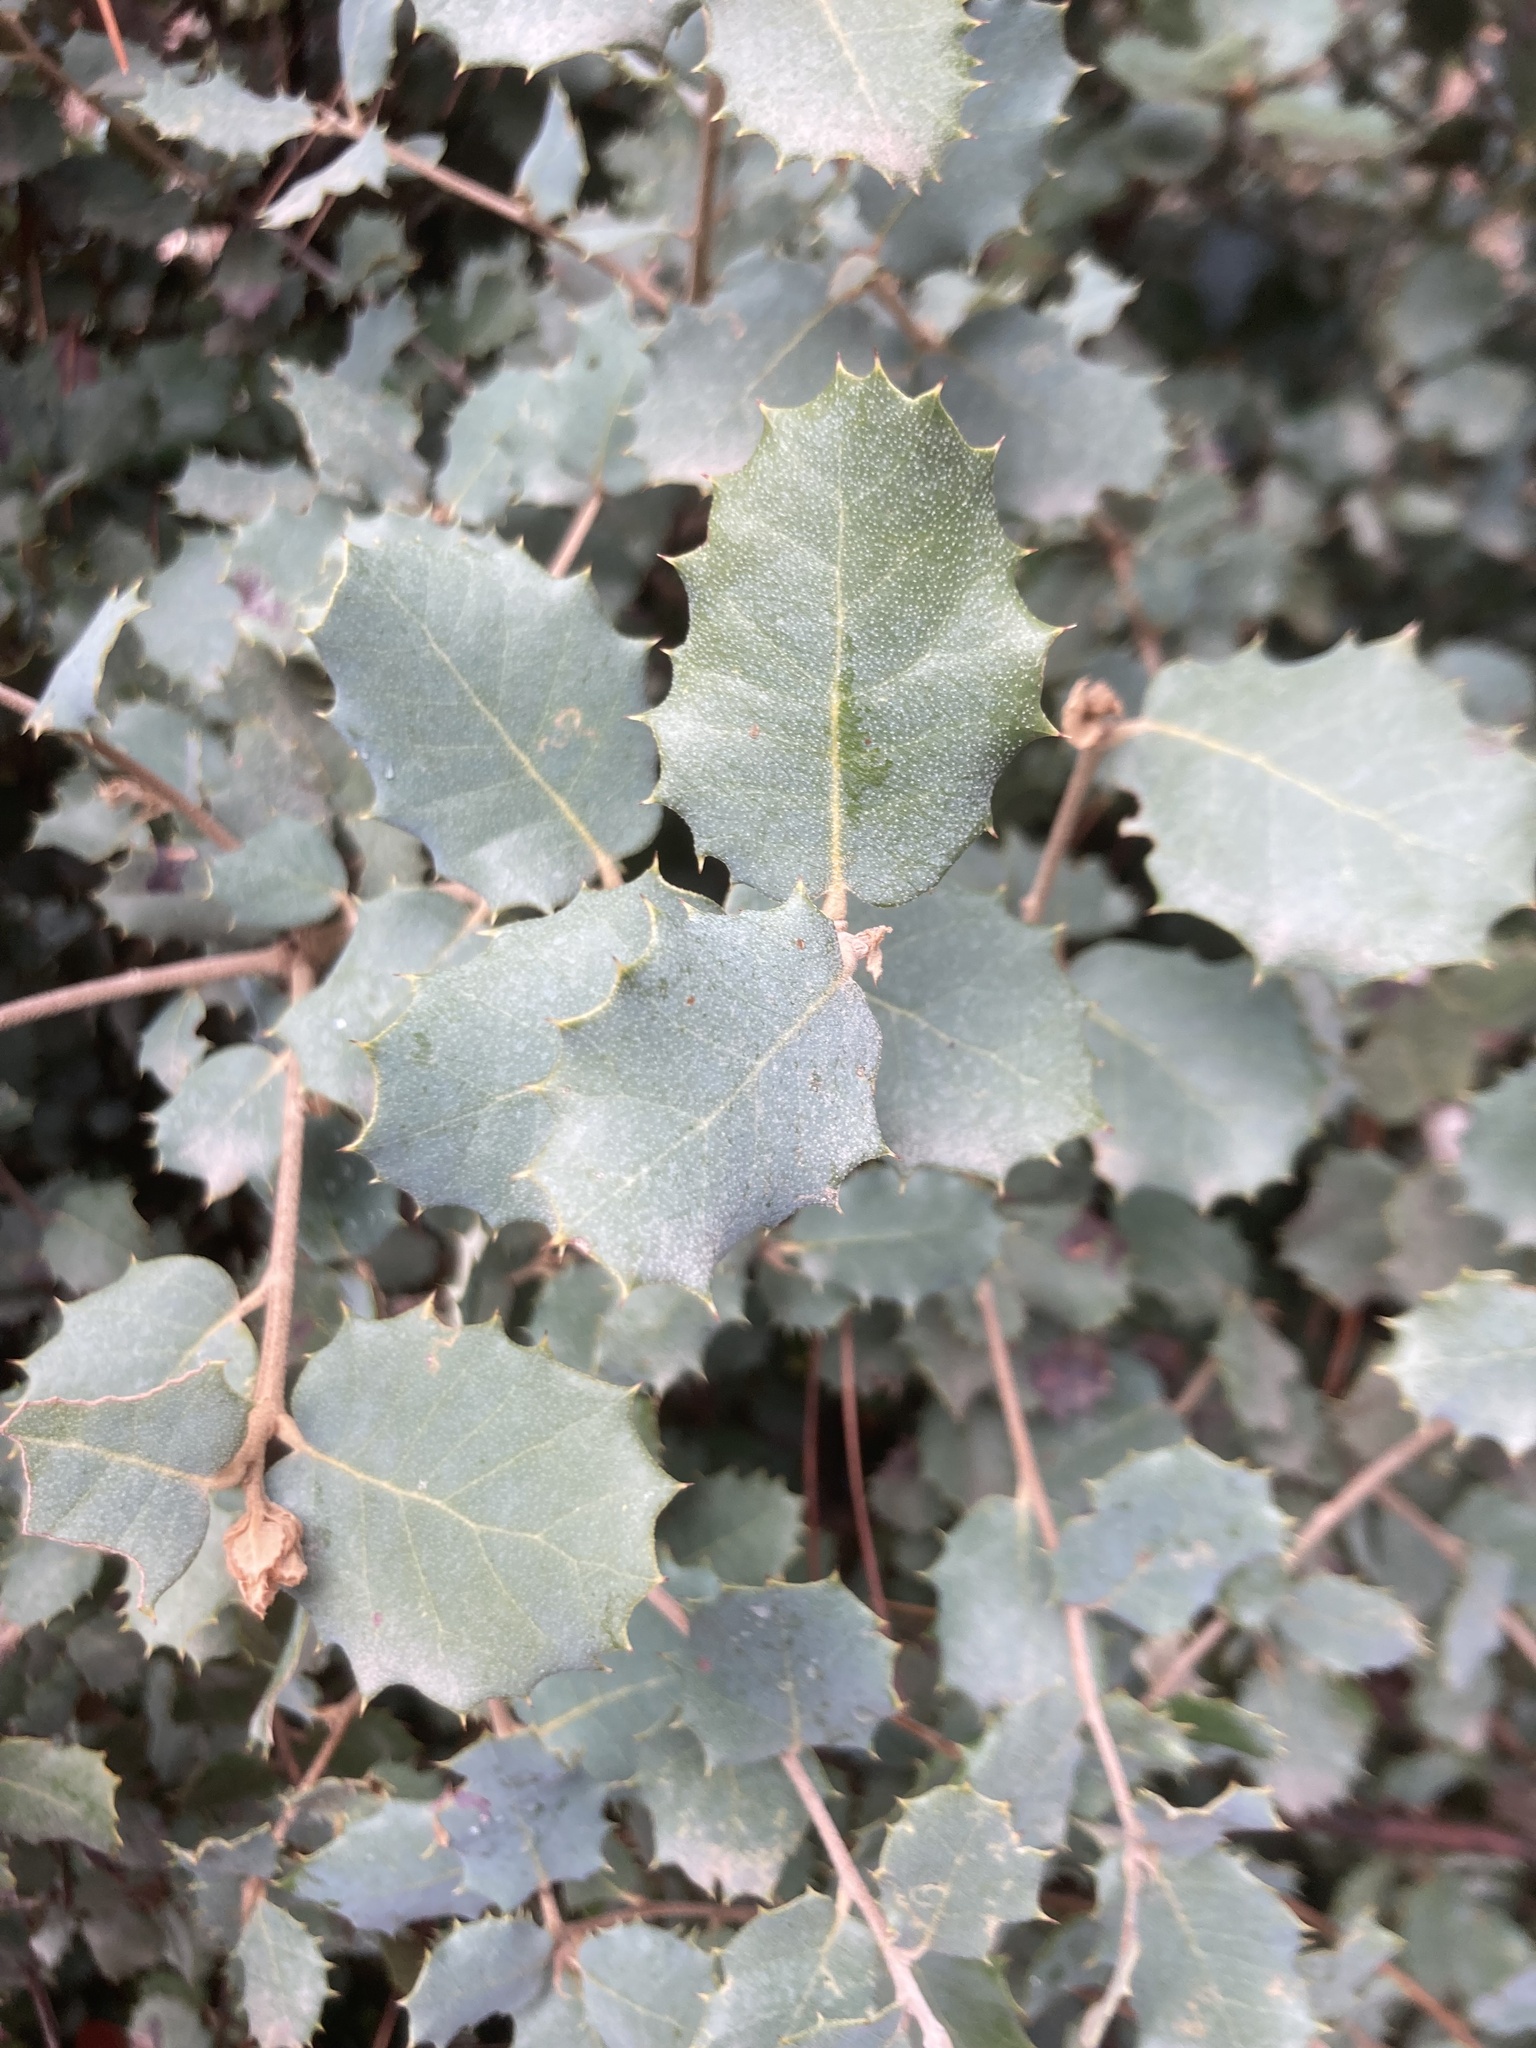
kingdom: Plantae
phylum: Tracheophyta
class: Magnoliopsida
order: Fagales
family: Fagaceae
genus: Quercus
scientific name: Quercus rotundifolia
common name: Holm oak
